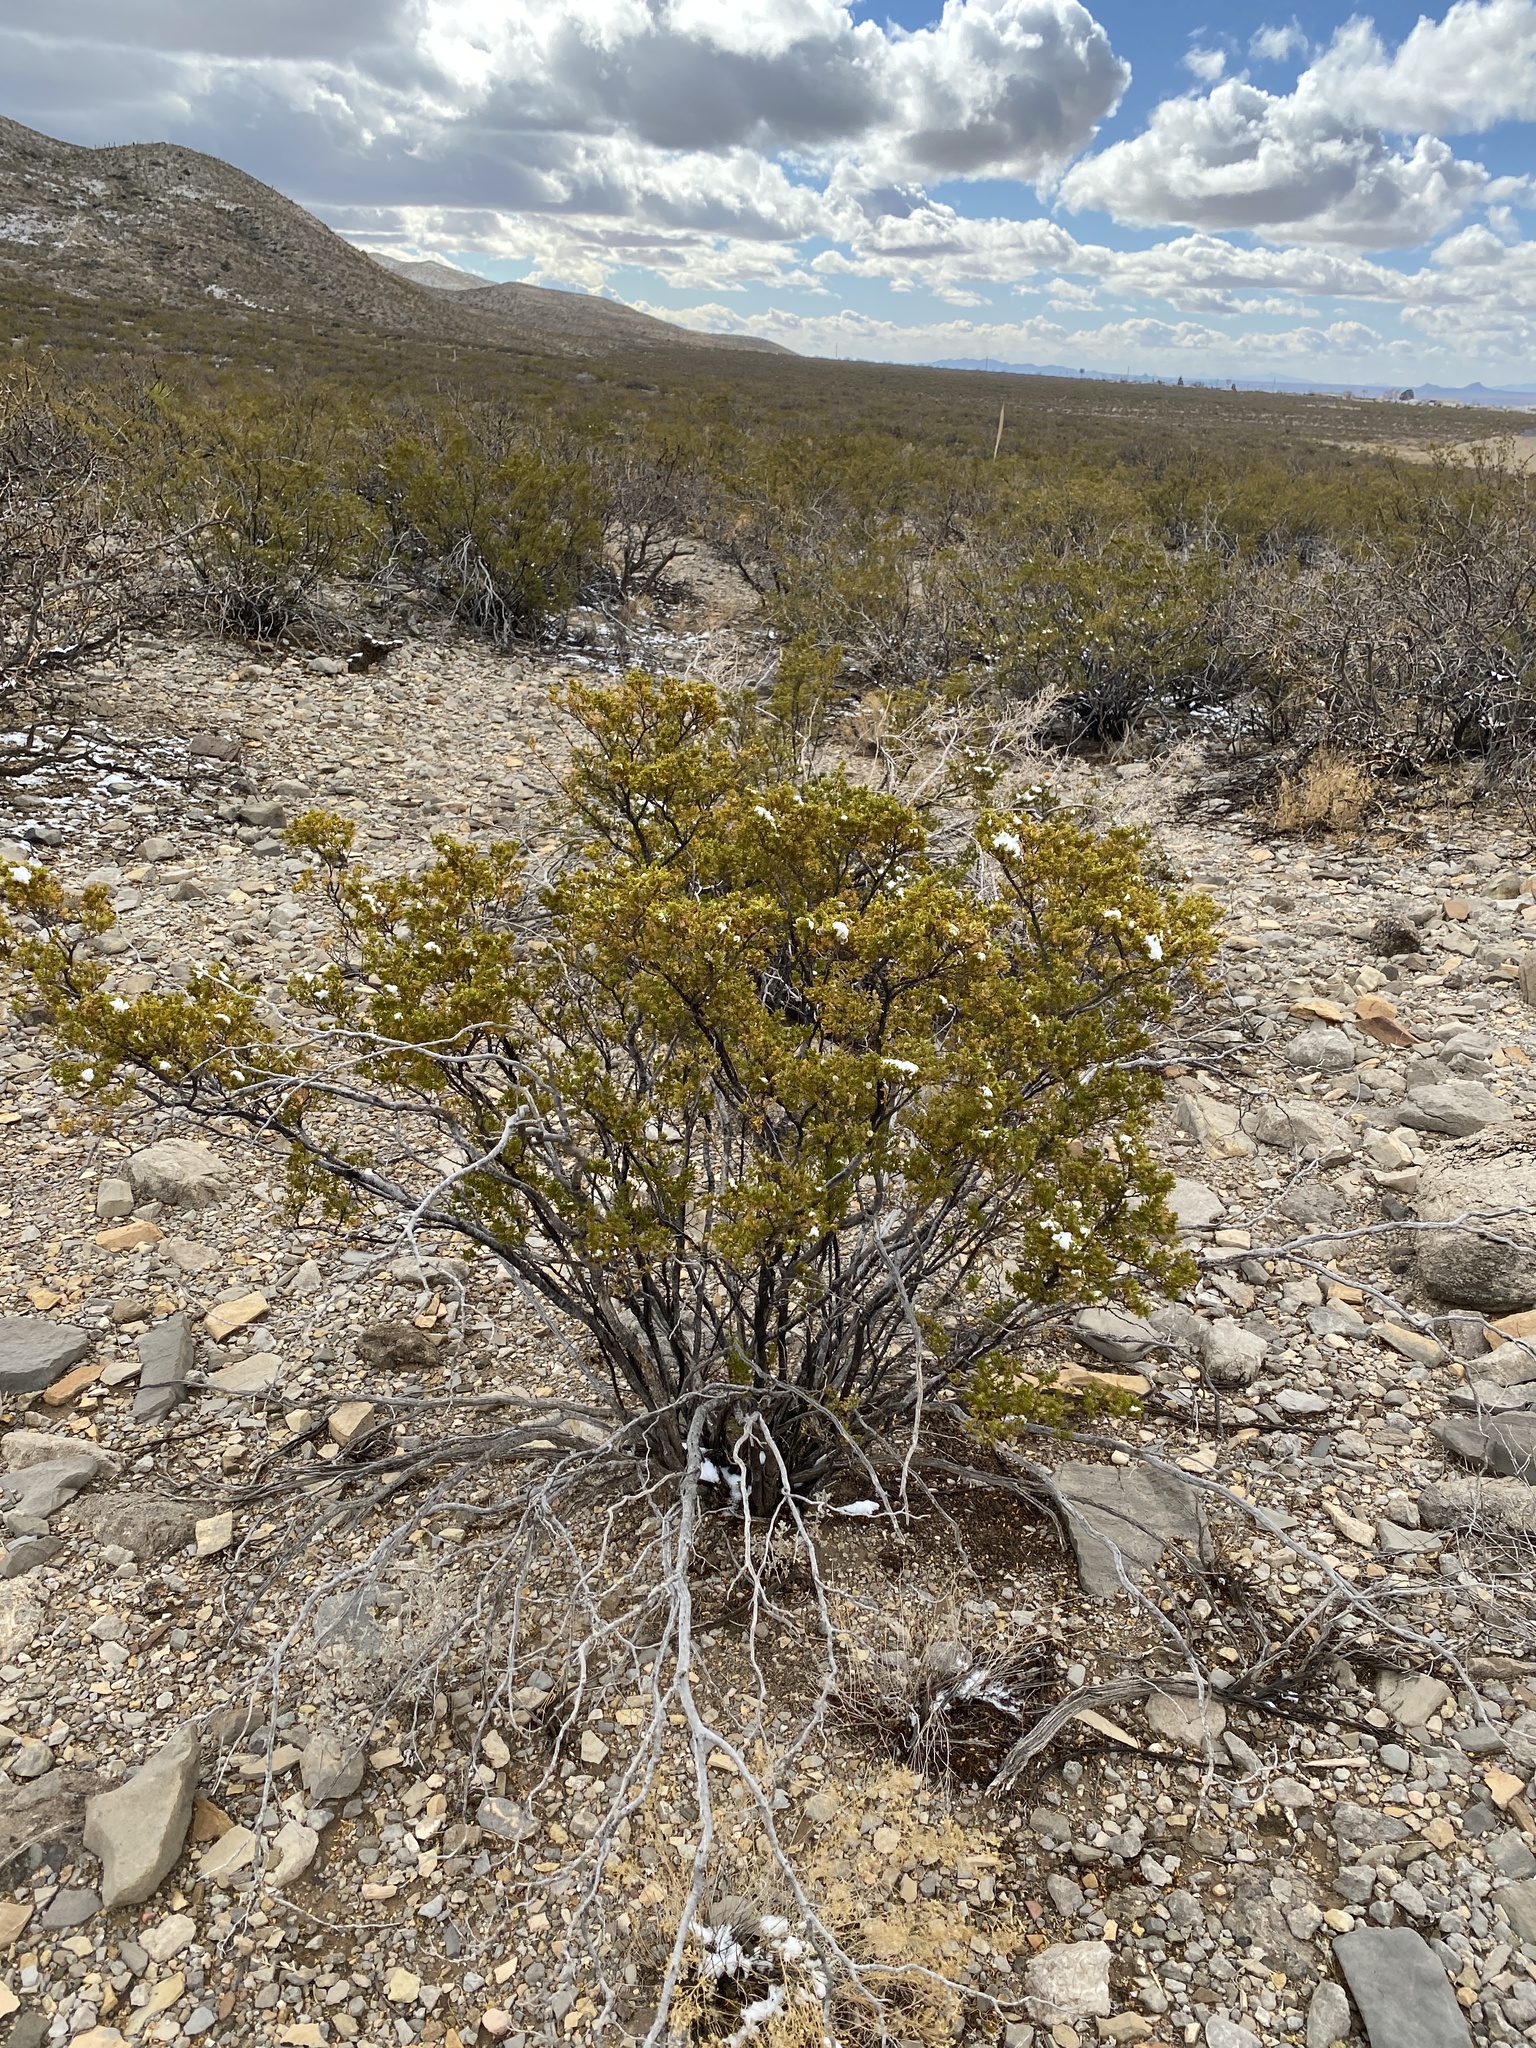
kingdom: Plantae
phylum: Tracheophyta
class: Magnoliopsida
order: Zygophyllales
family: Zygophyllaceae
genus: Larrea
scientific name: Larrea tridentata
